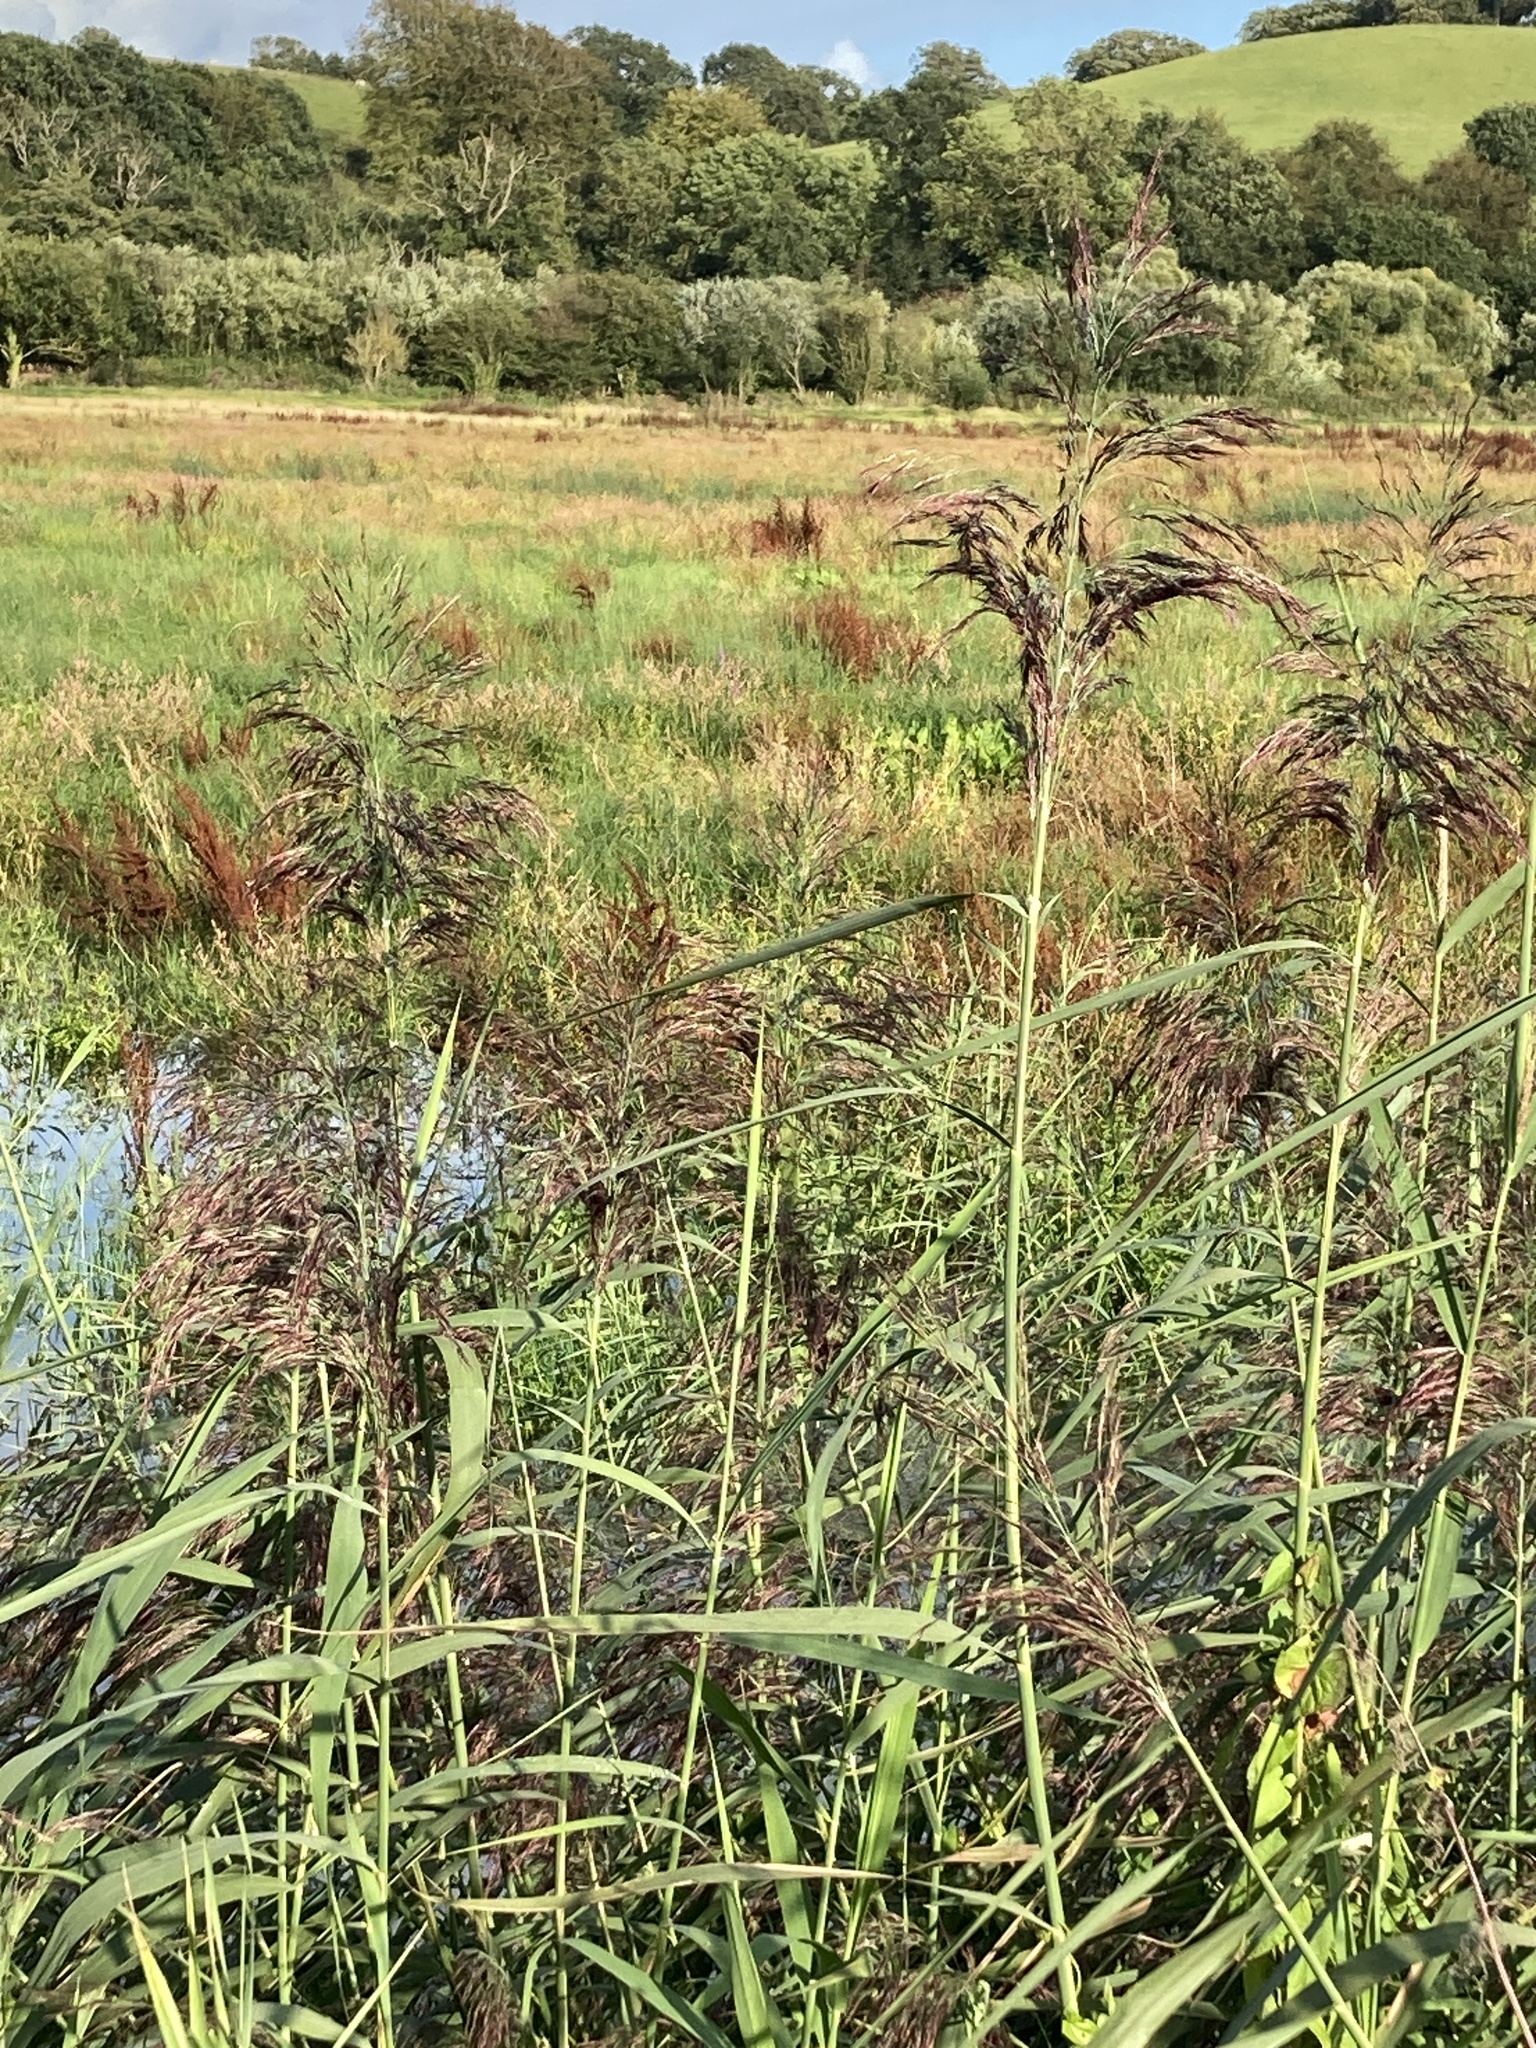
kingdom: Plantae
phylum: Tracheophyta
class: Liliopsida
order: Poales
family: Poaceae
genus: Phragmites
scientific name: Phragmites australis
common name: Common reed
